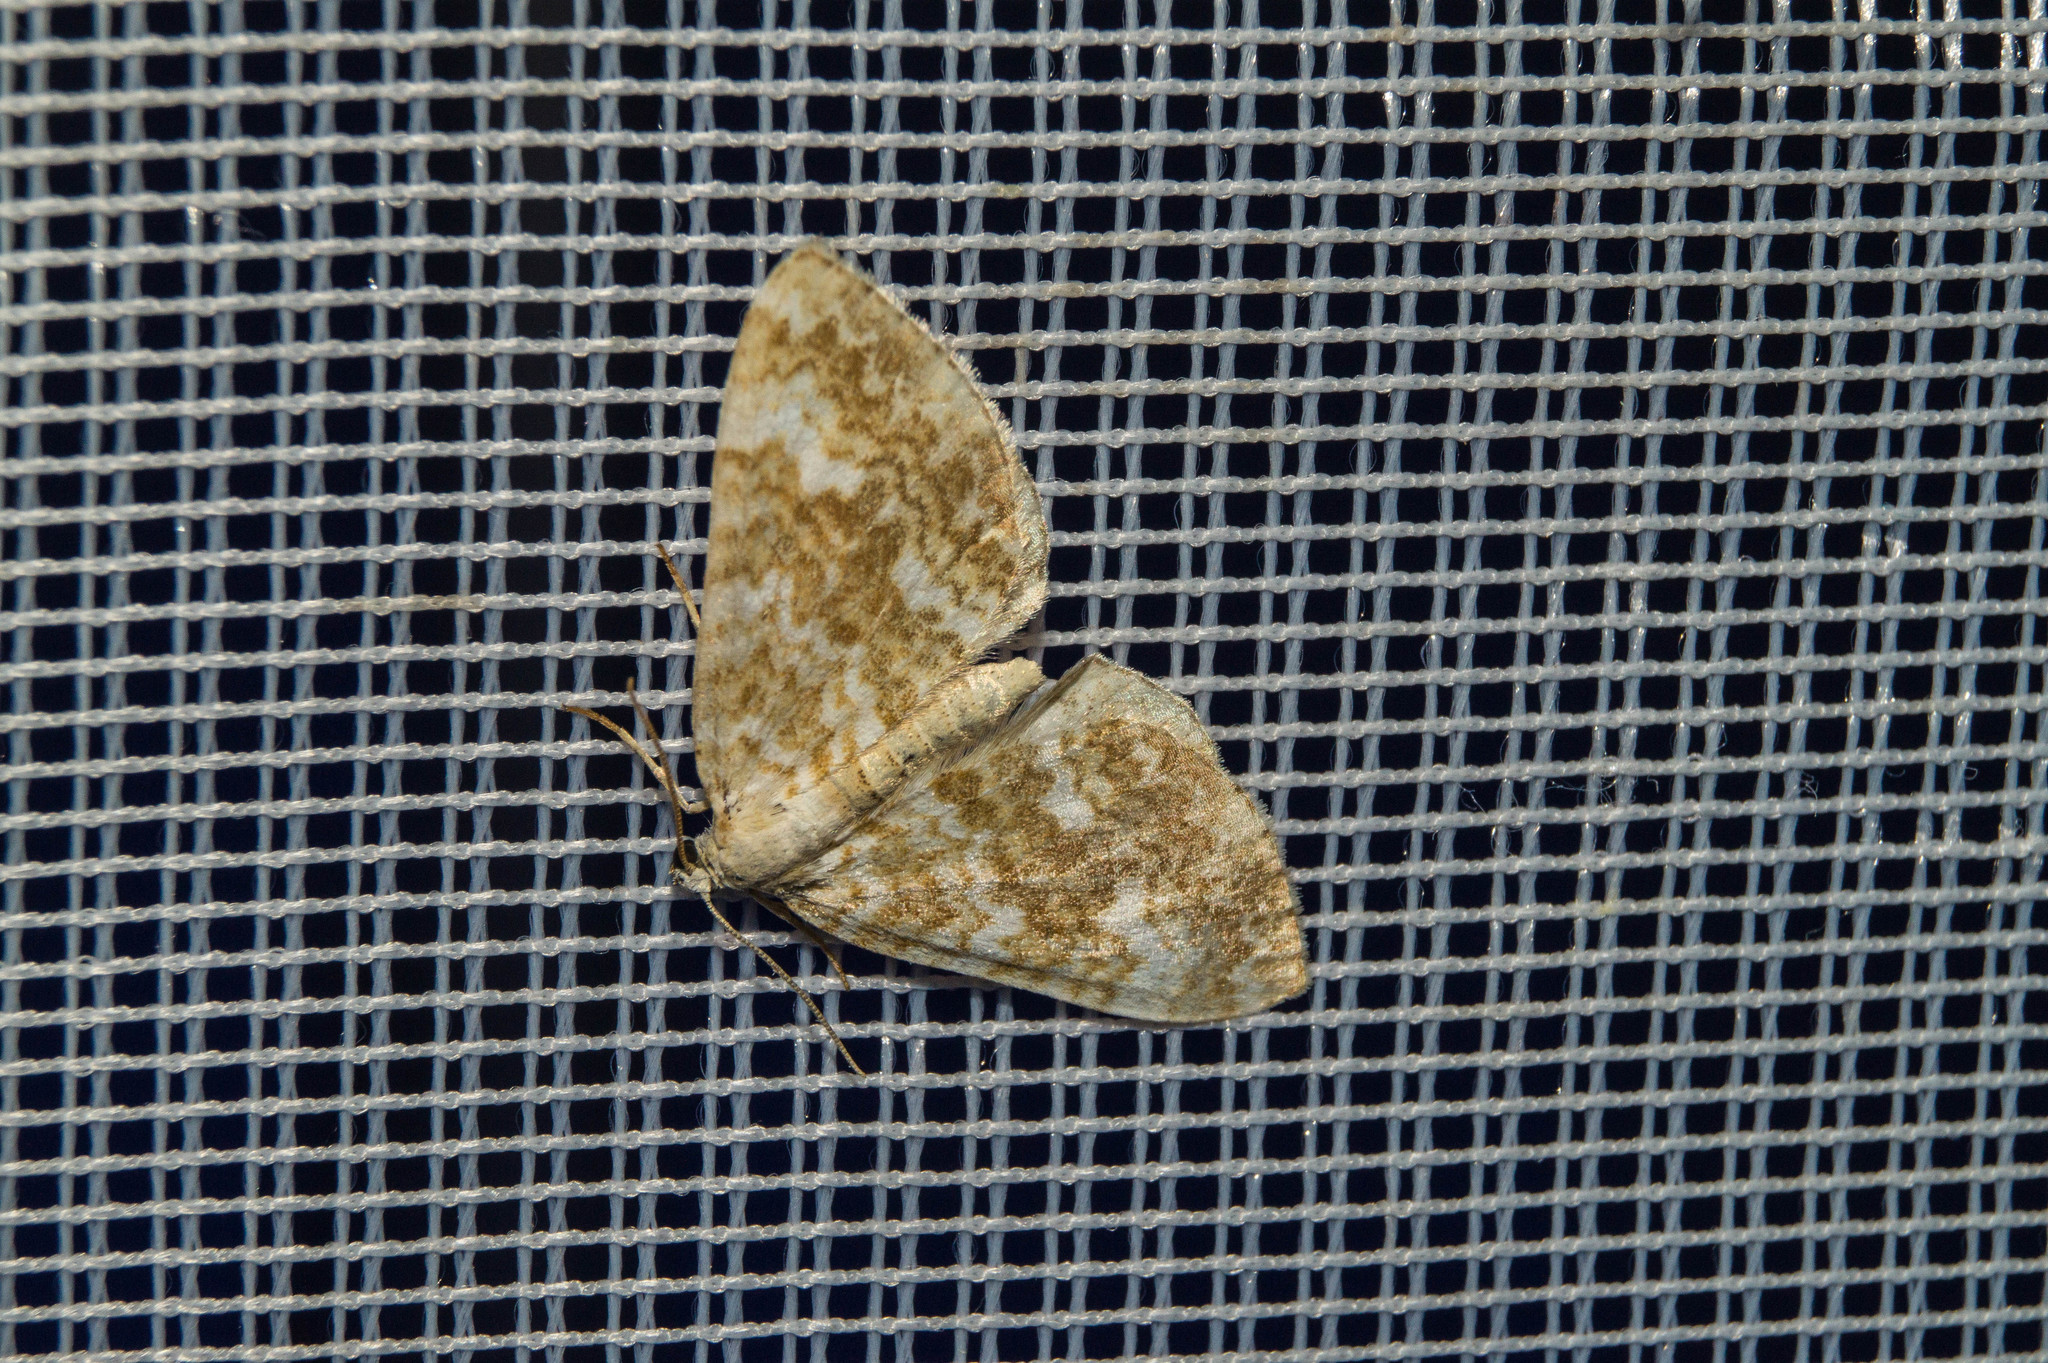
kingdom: Animalia
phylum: Arthropoda
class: Insecta
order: Lepidoptera
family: Geometridae
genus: Perizoma
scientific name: Perizoma flavofasciata
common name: Sandy carpet
